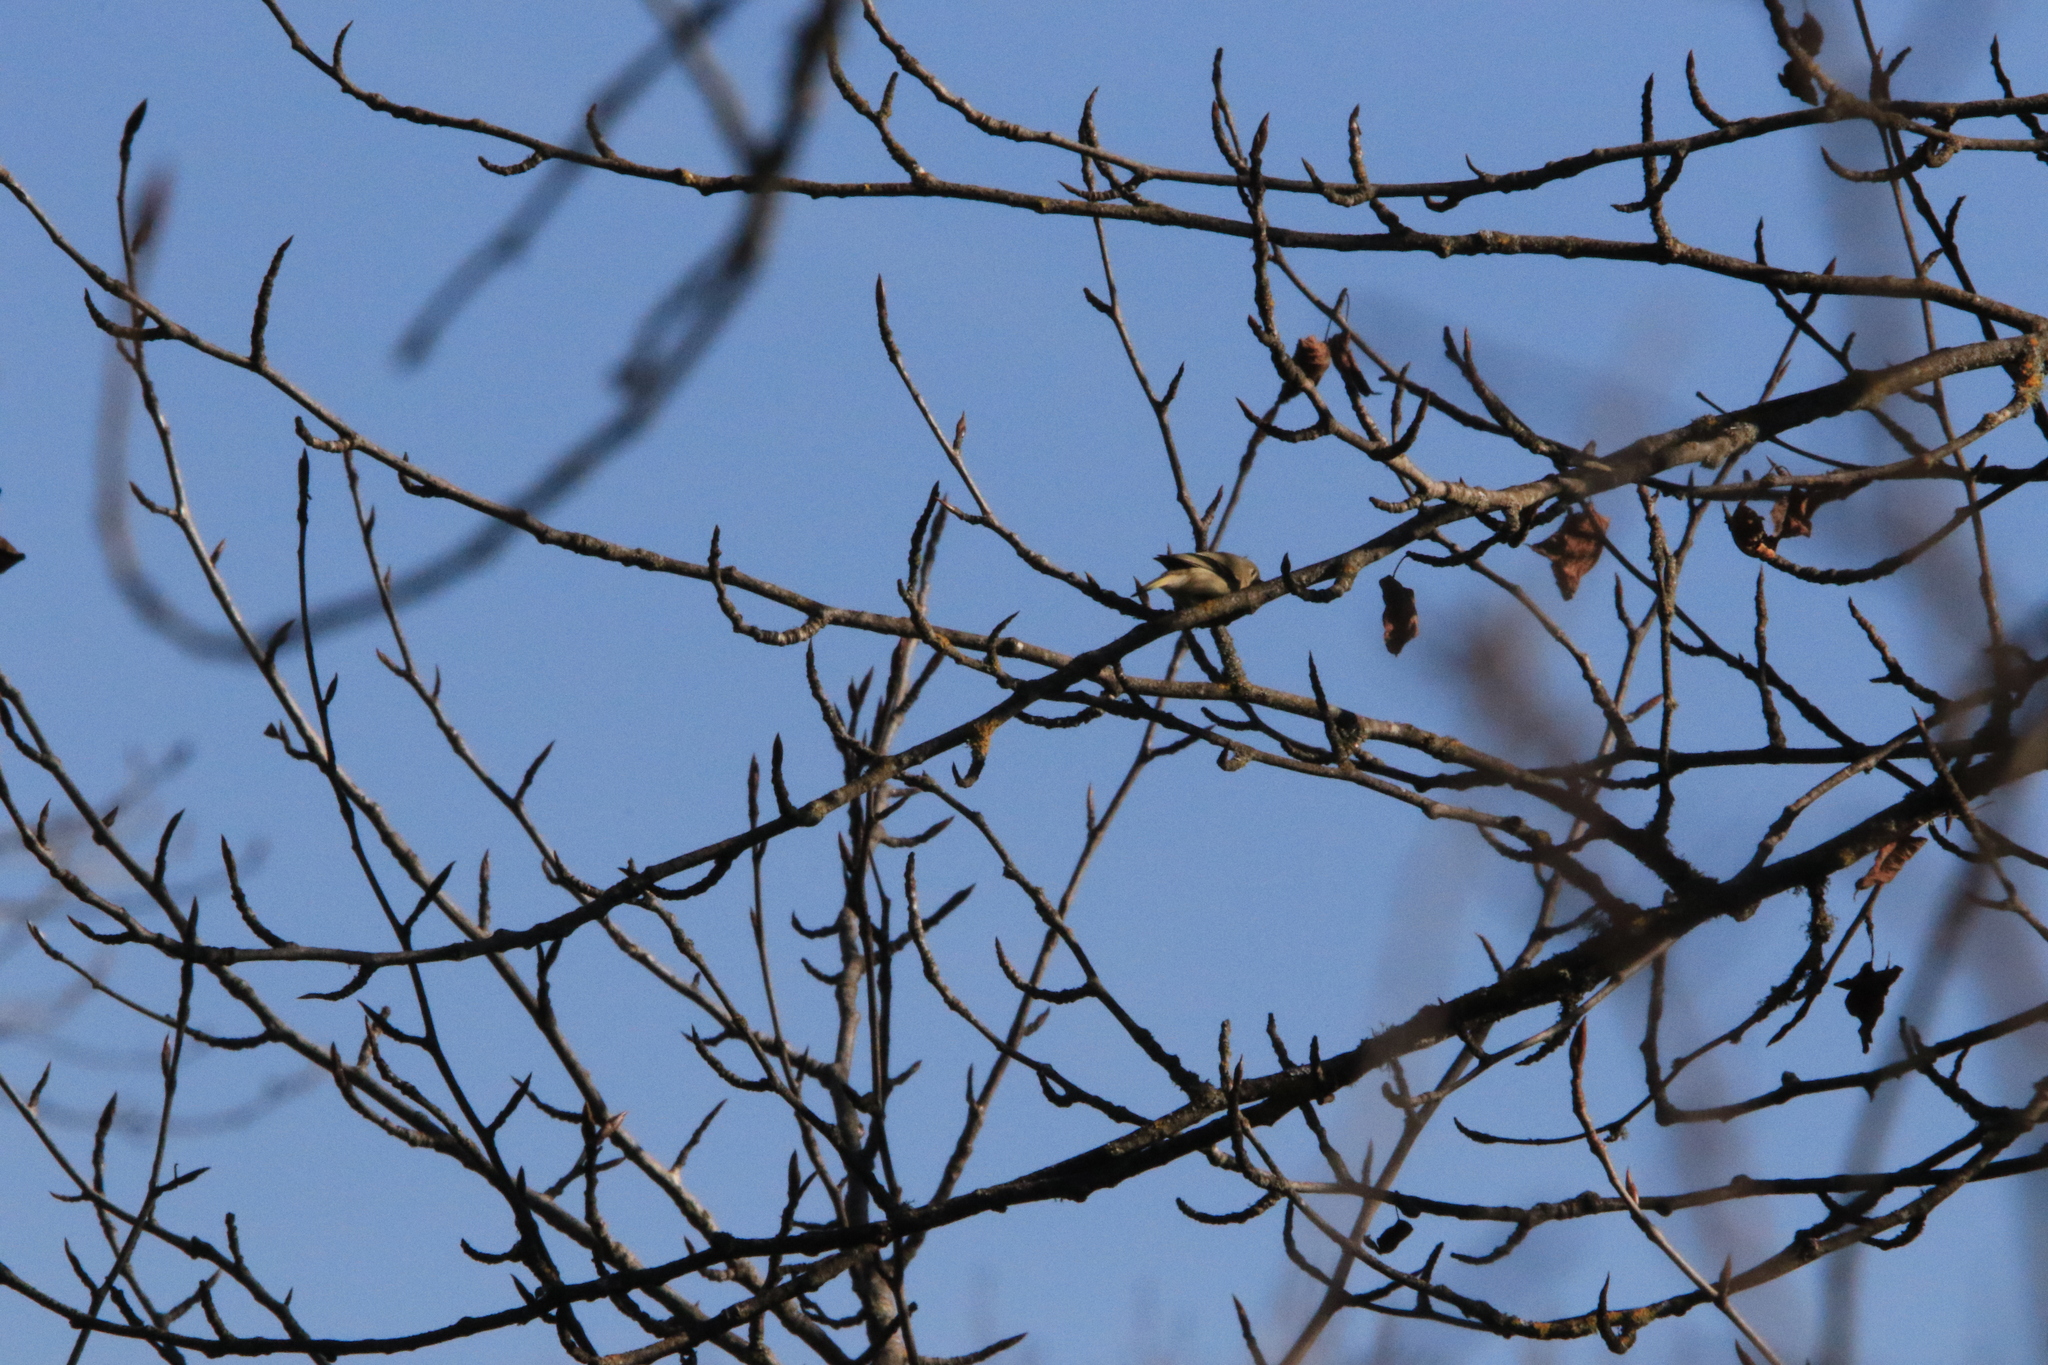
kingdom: Animalia
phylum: Chordata
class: Aves
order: Passeriformes
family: Regulidae
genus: Regulus
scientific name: Regulus calendula
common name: Ruby-crowned kinglet
